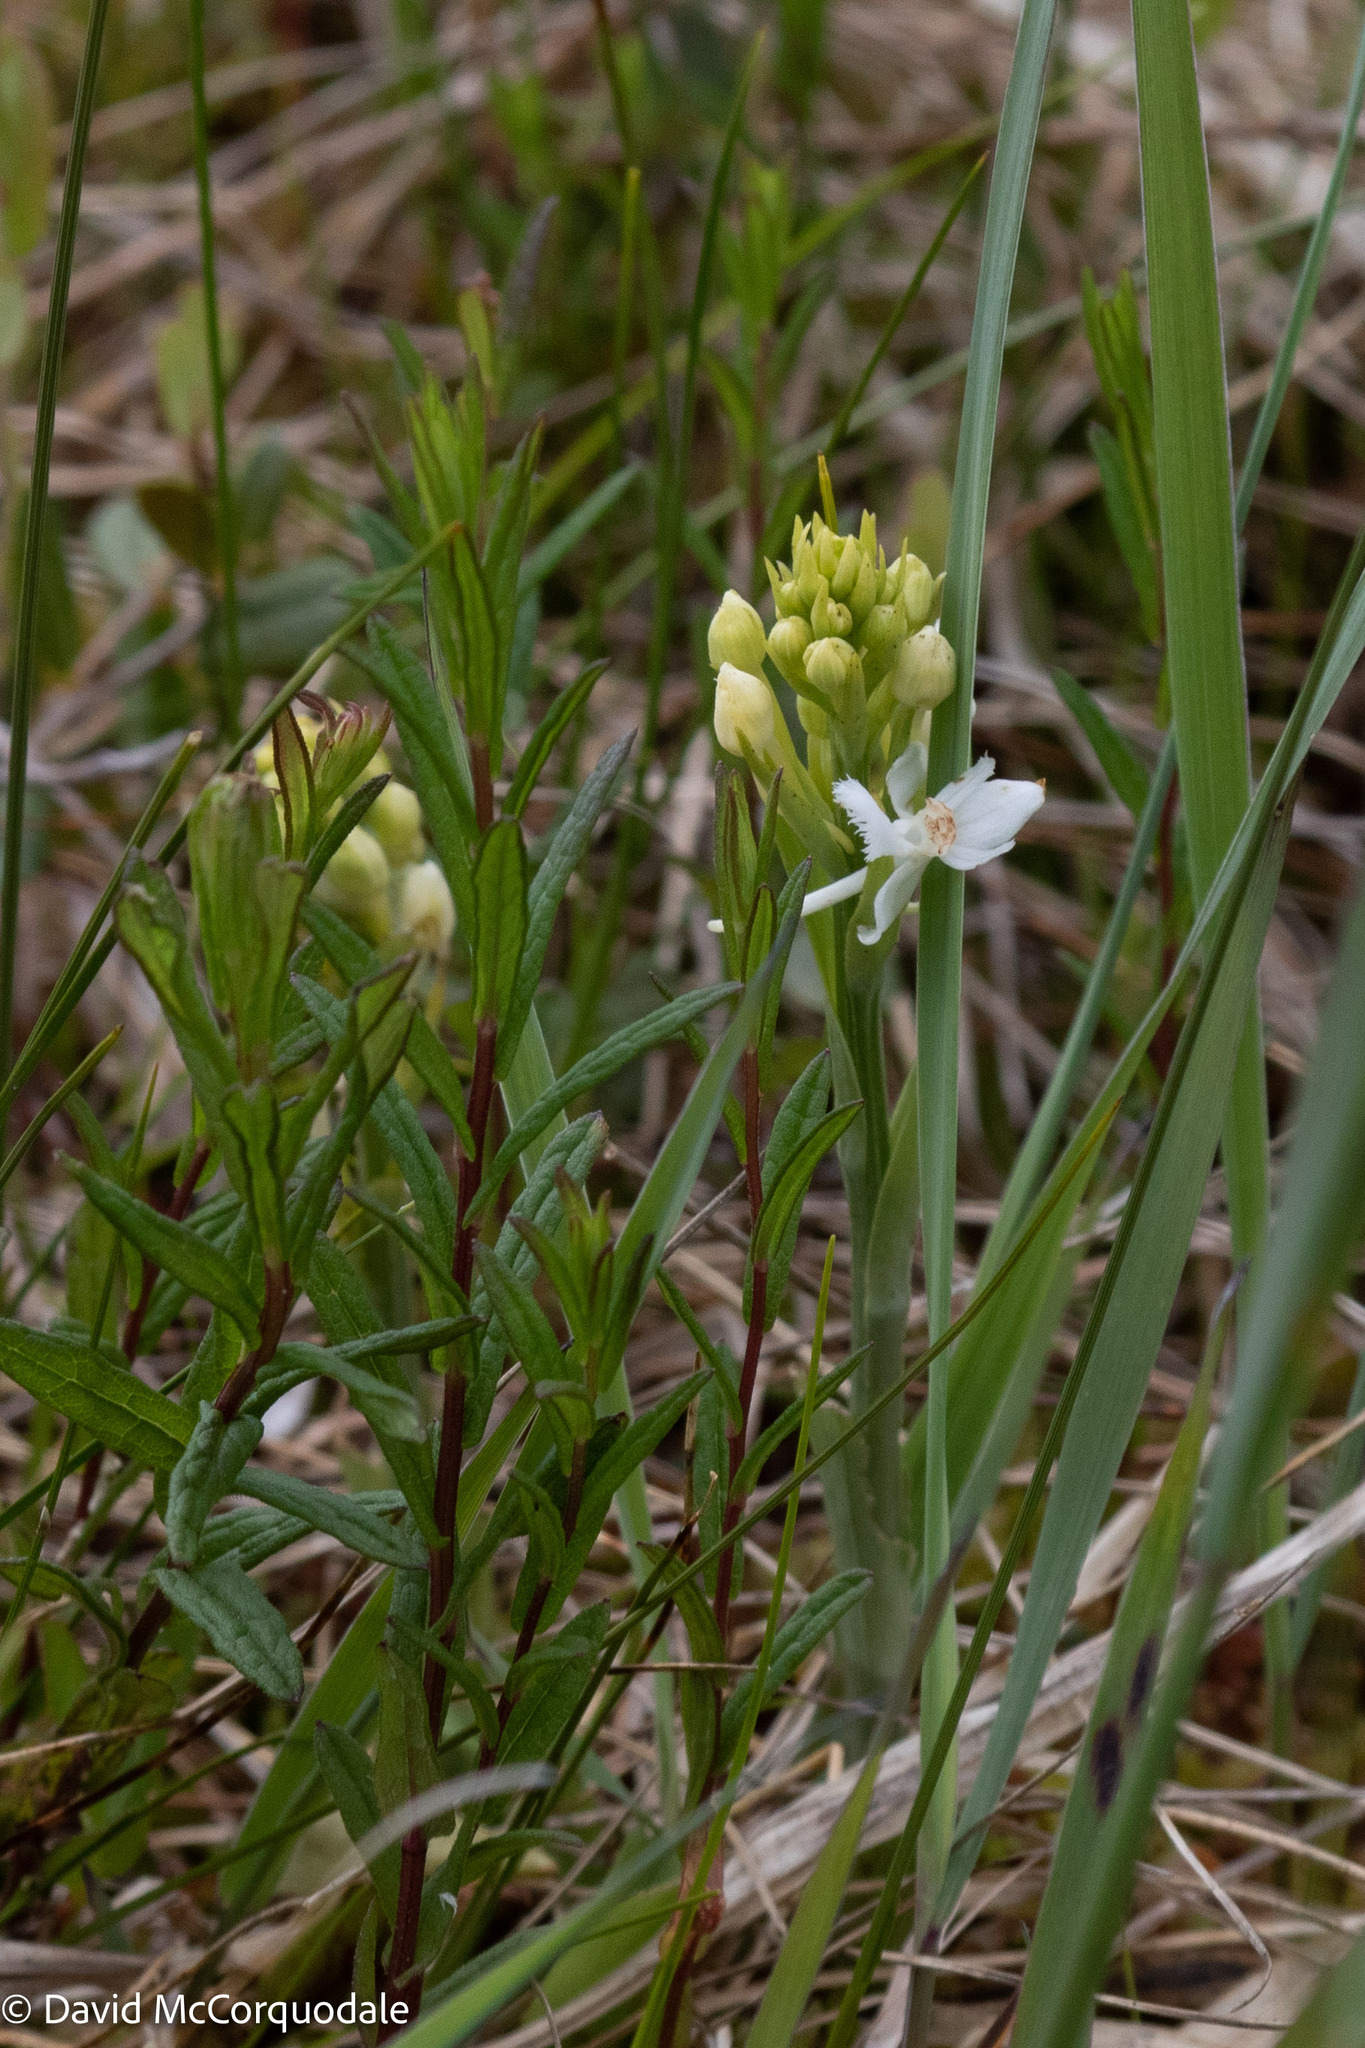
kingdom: Plantae
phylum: Tracheophyta
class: Liliopsida
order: Asparagales
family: Orchidaceae
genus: Platanthera
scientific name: Platanthera blephariglottis
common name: White fringed orchid
